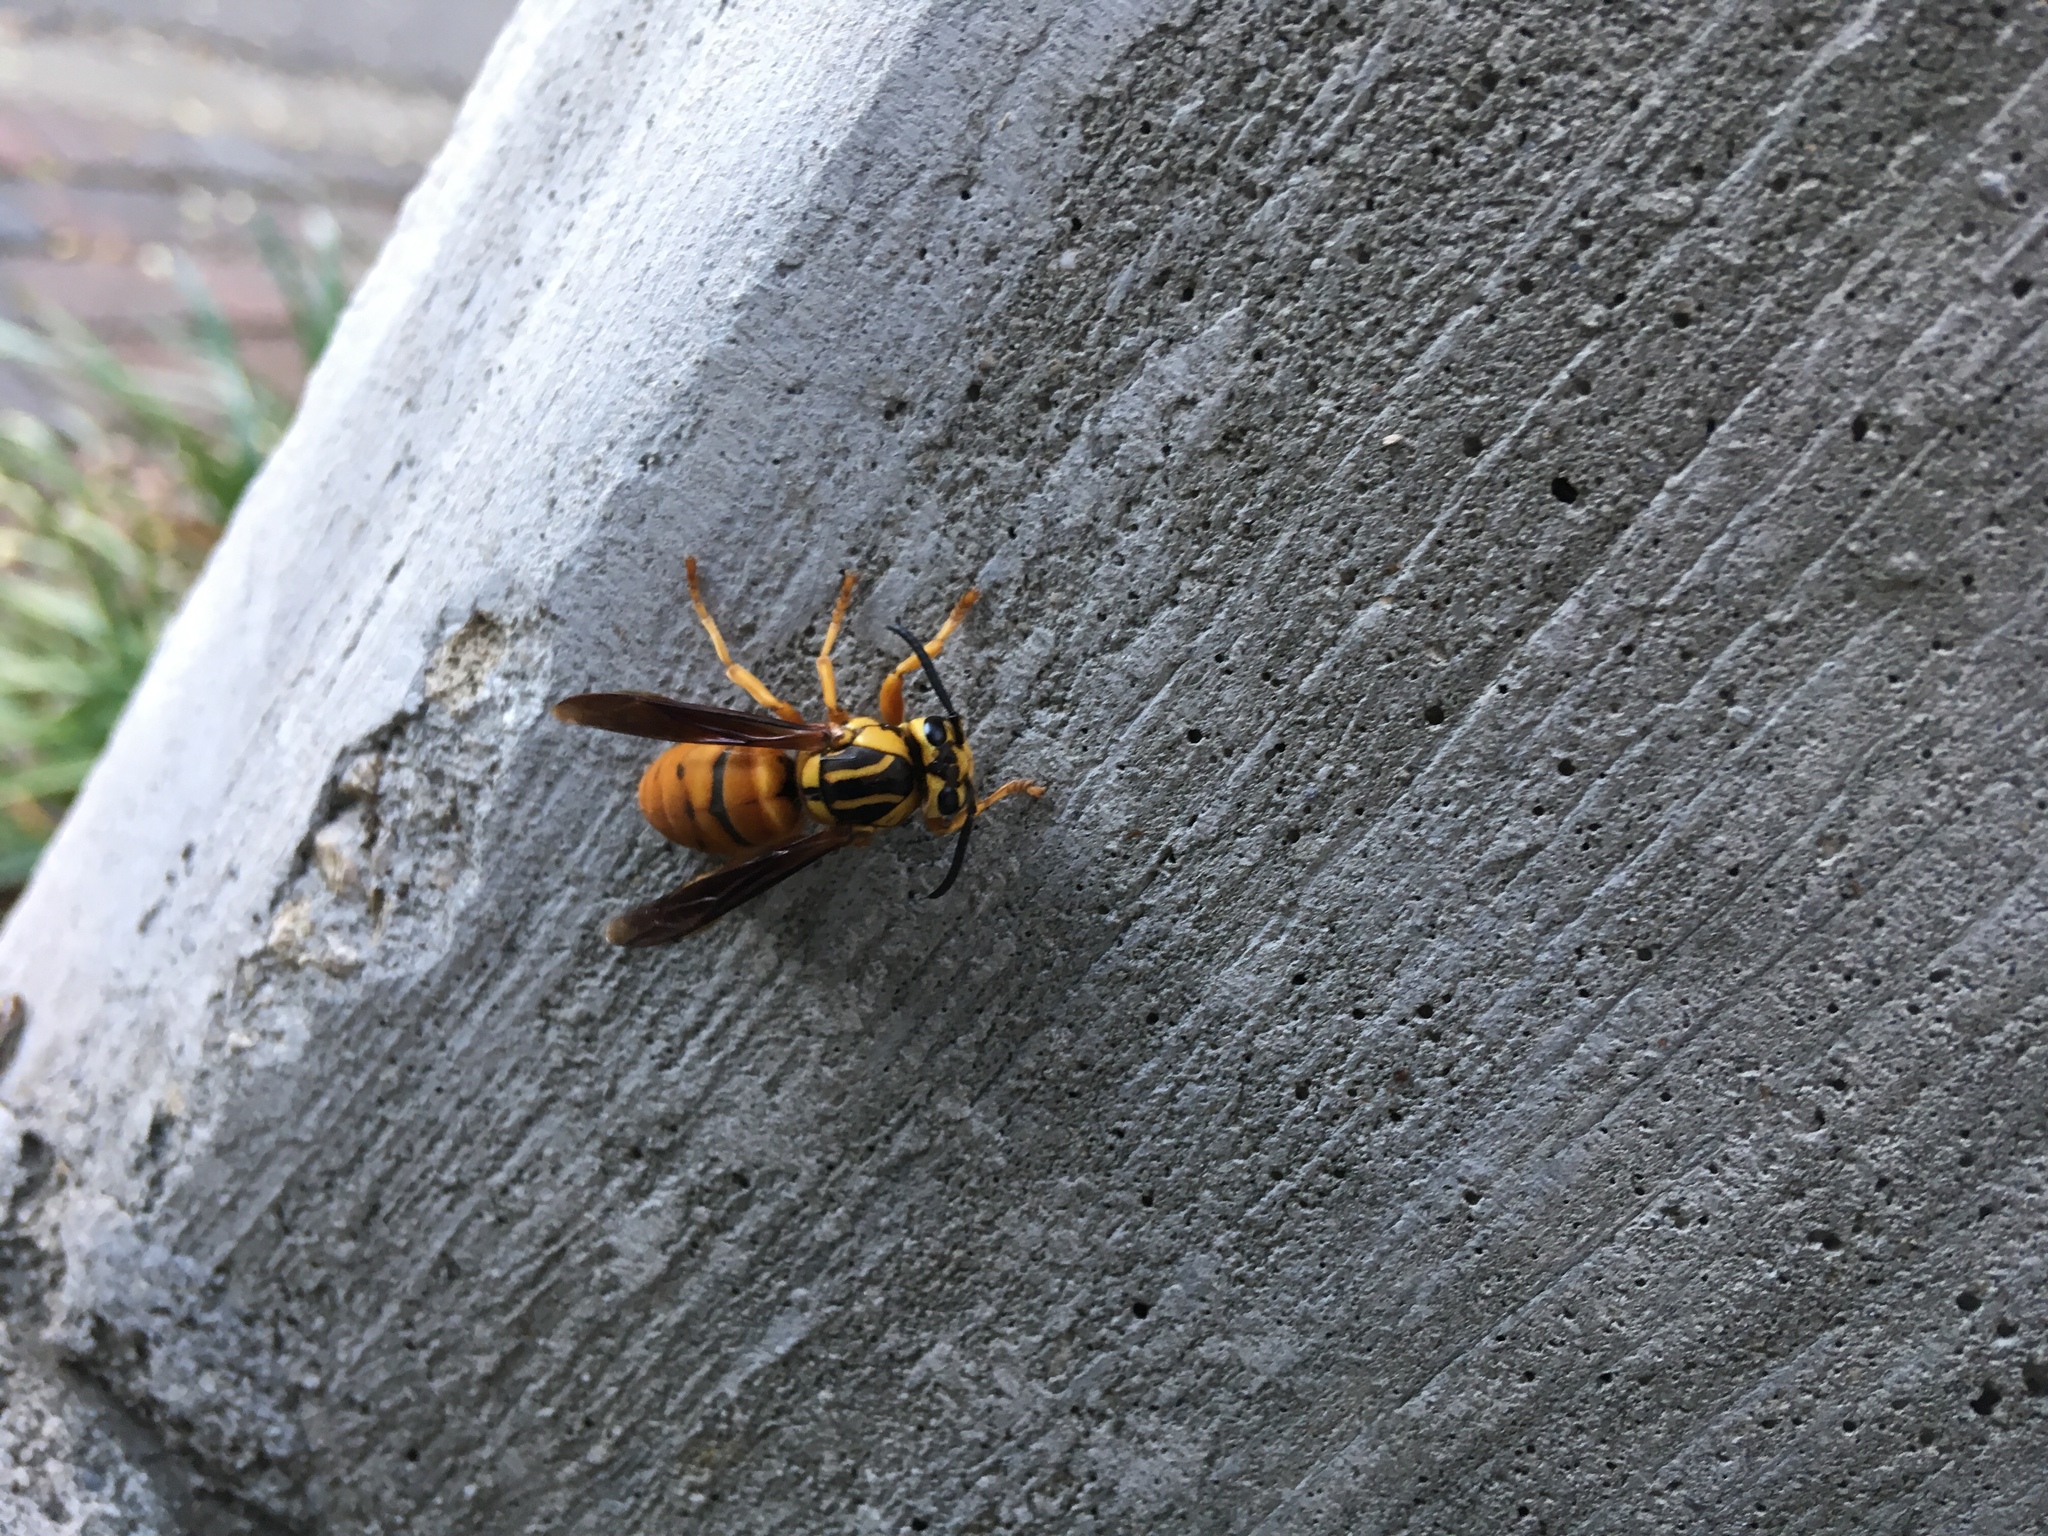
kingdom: Animalia
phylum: Arthropoda
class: Insecta
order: Hymenoptera
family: Vespidae
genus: Vespula
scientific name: Vespula squamosa
